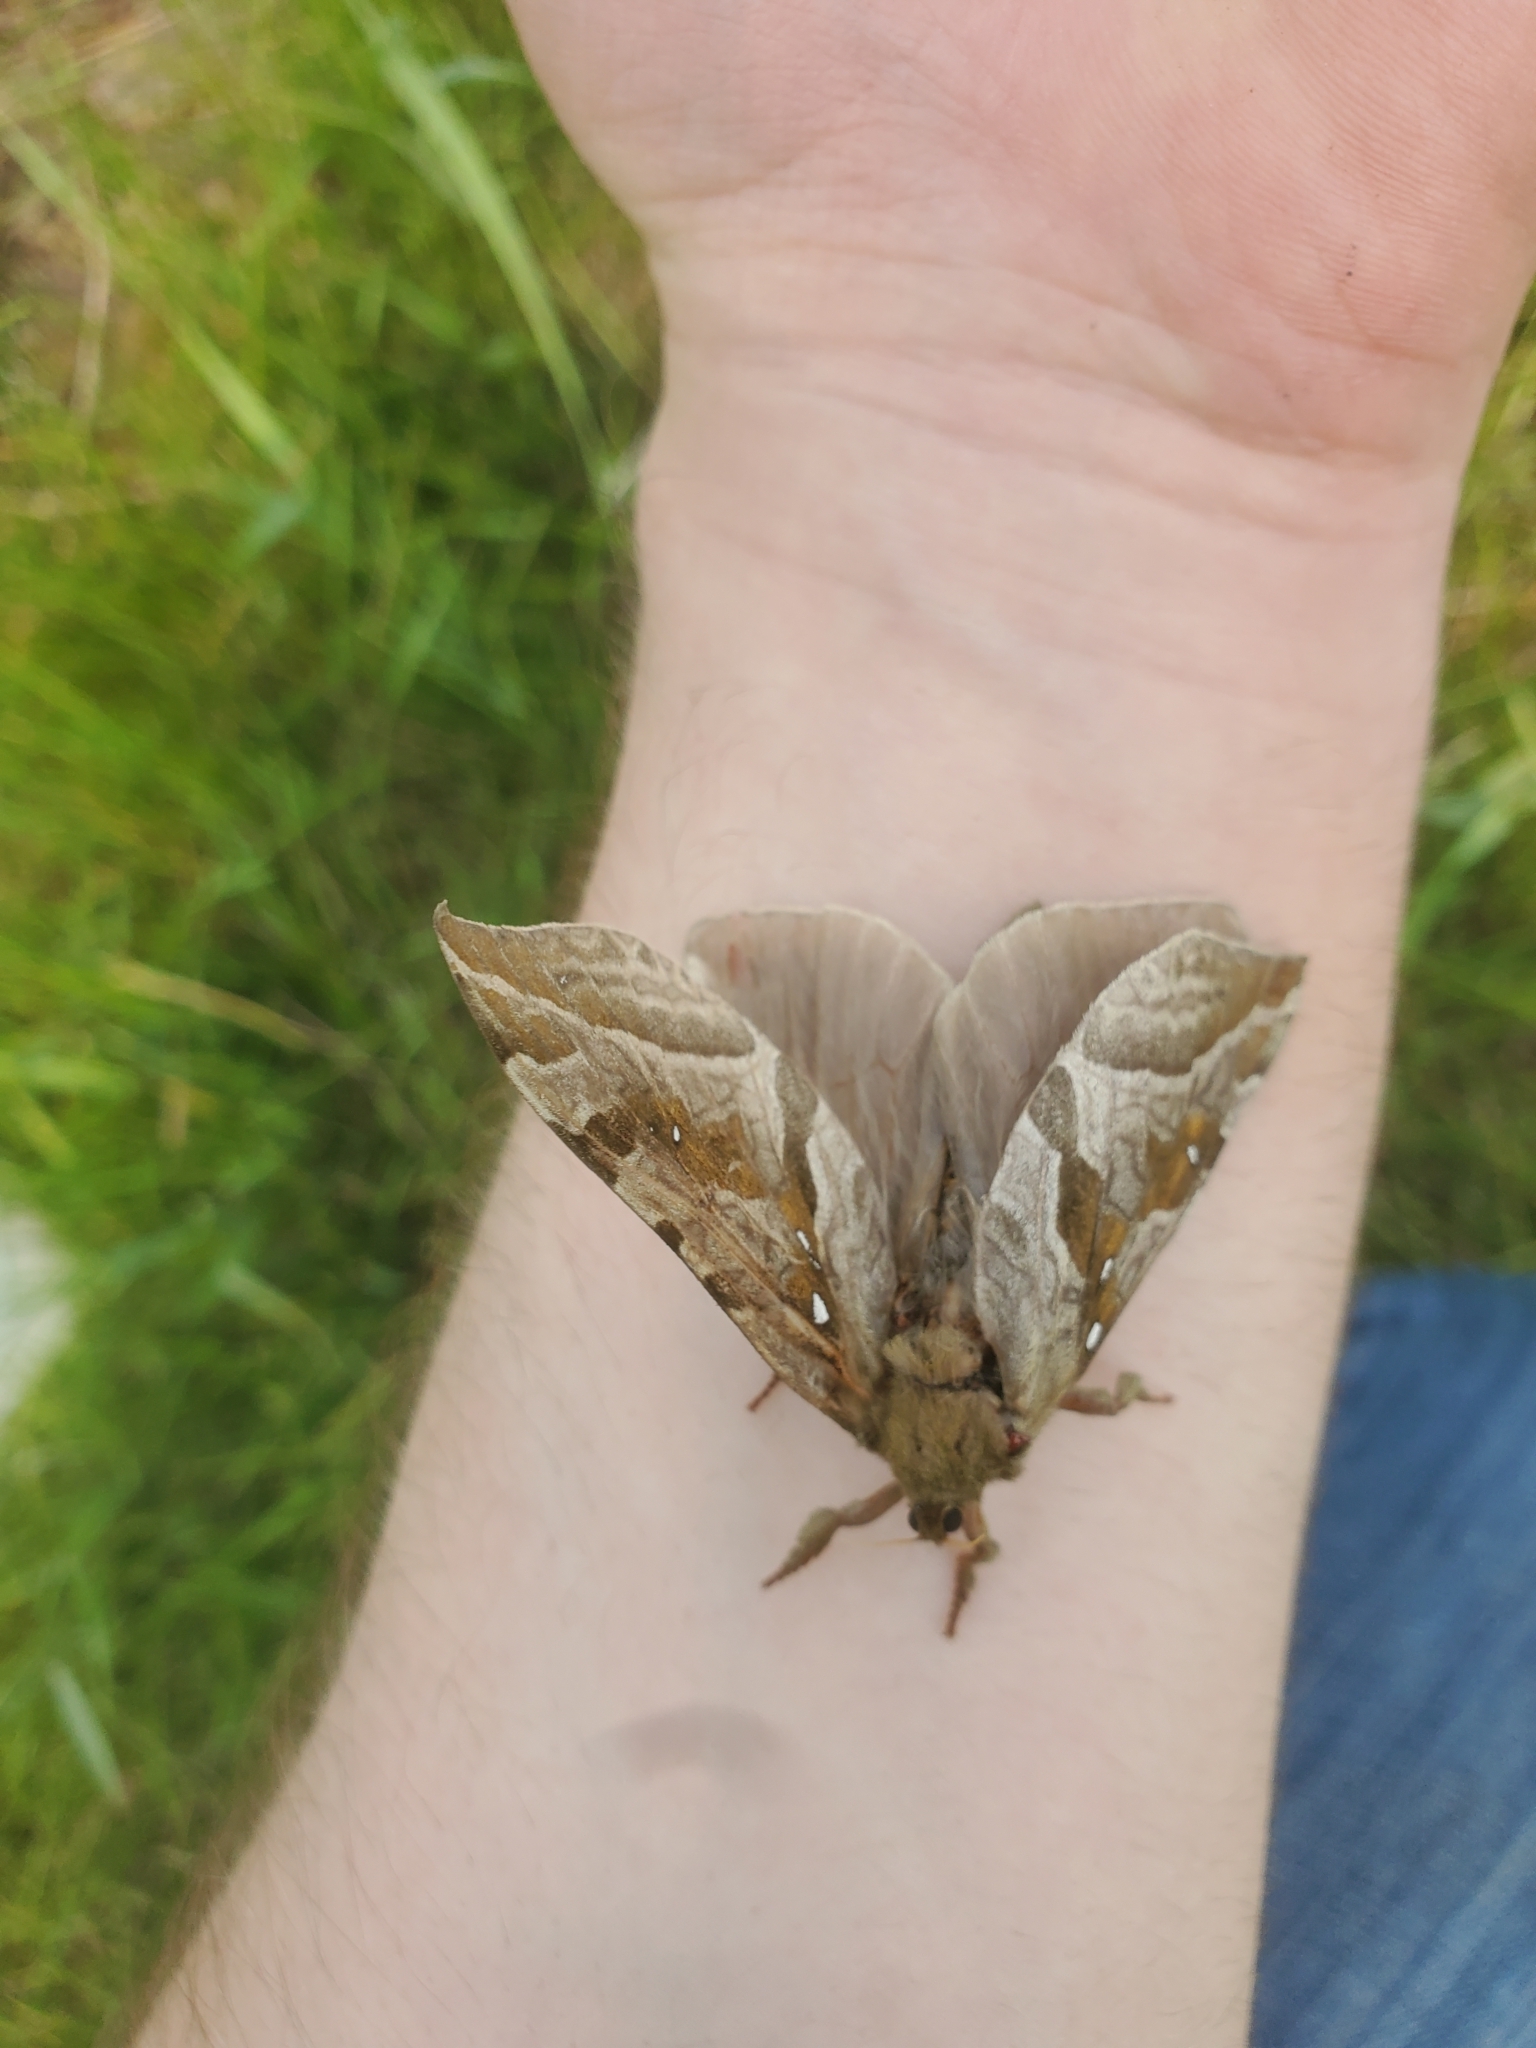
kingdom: Animalia
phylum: Arthropoda
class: Insecta
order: Lepidoptera
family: Hepialidae
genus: Sthenopis
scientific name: Sthenopis purpurascens
